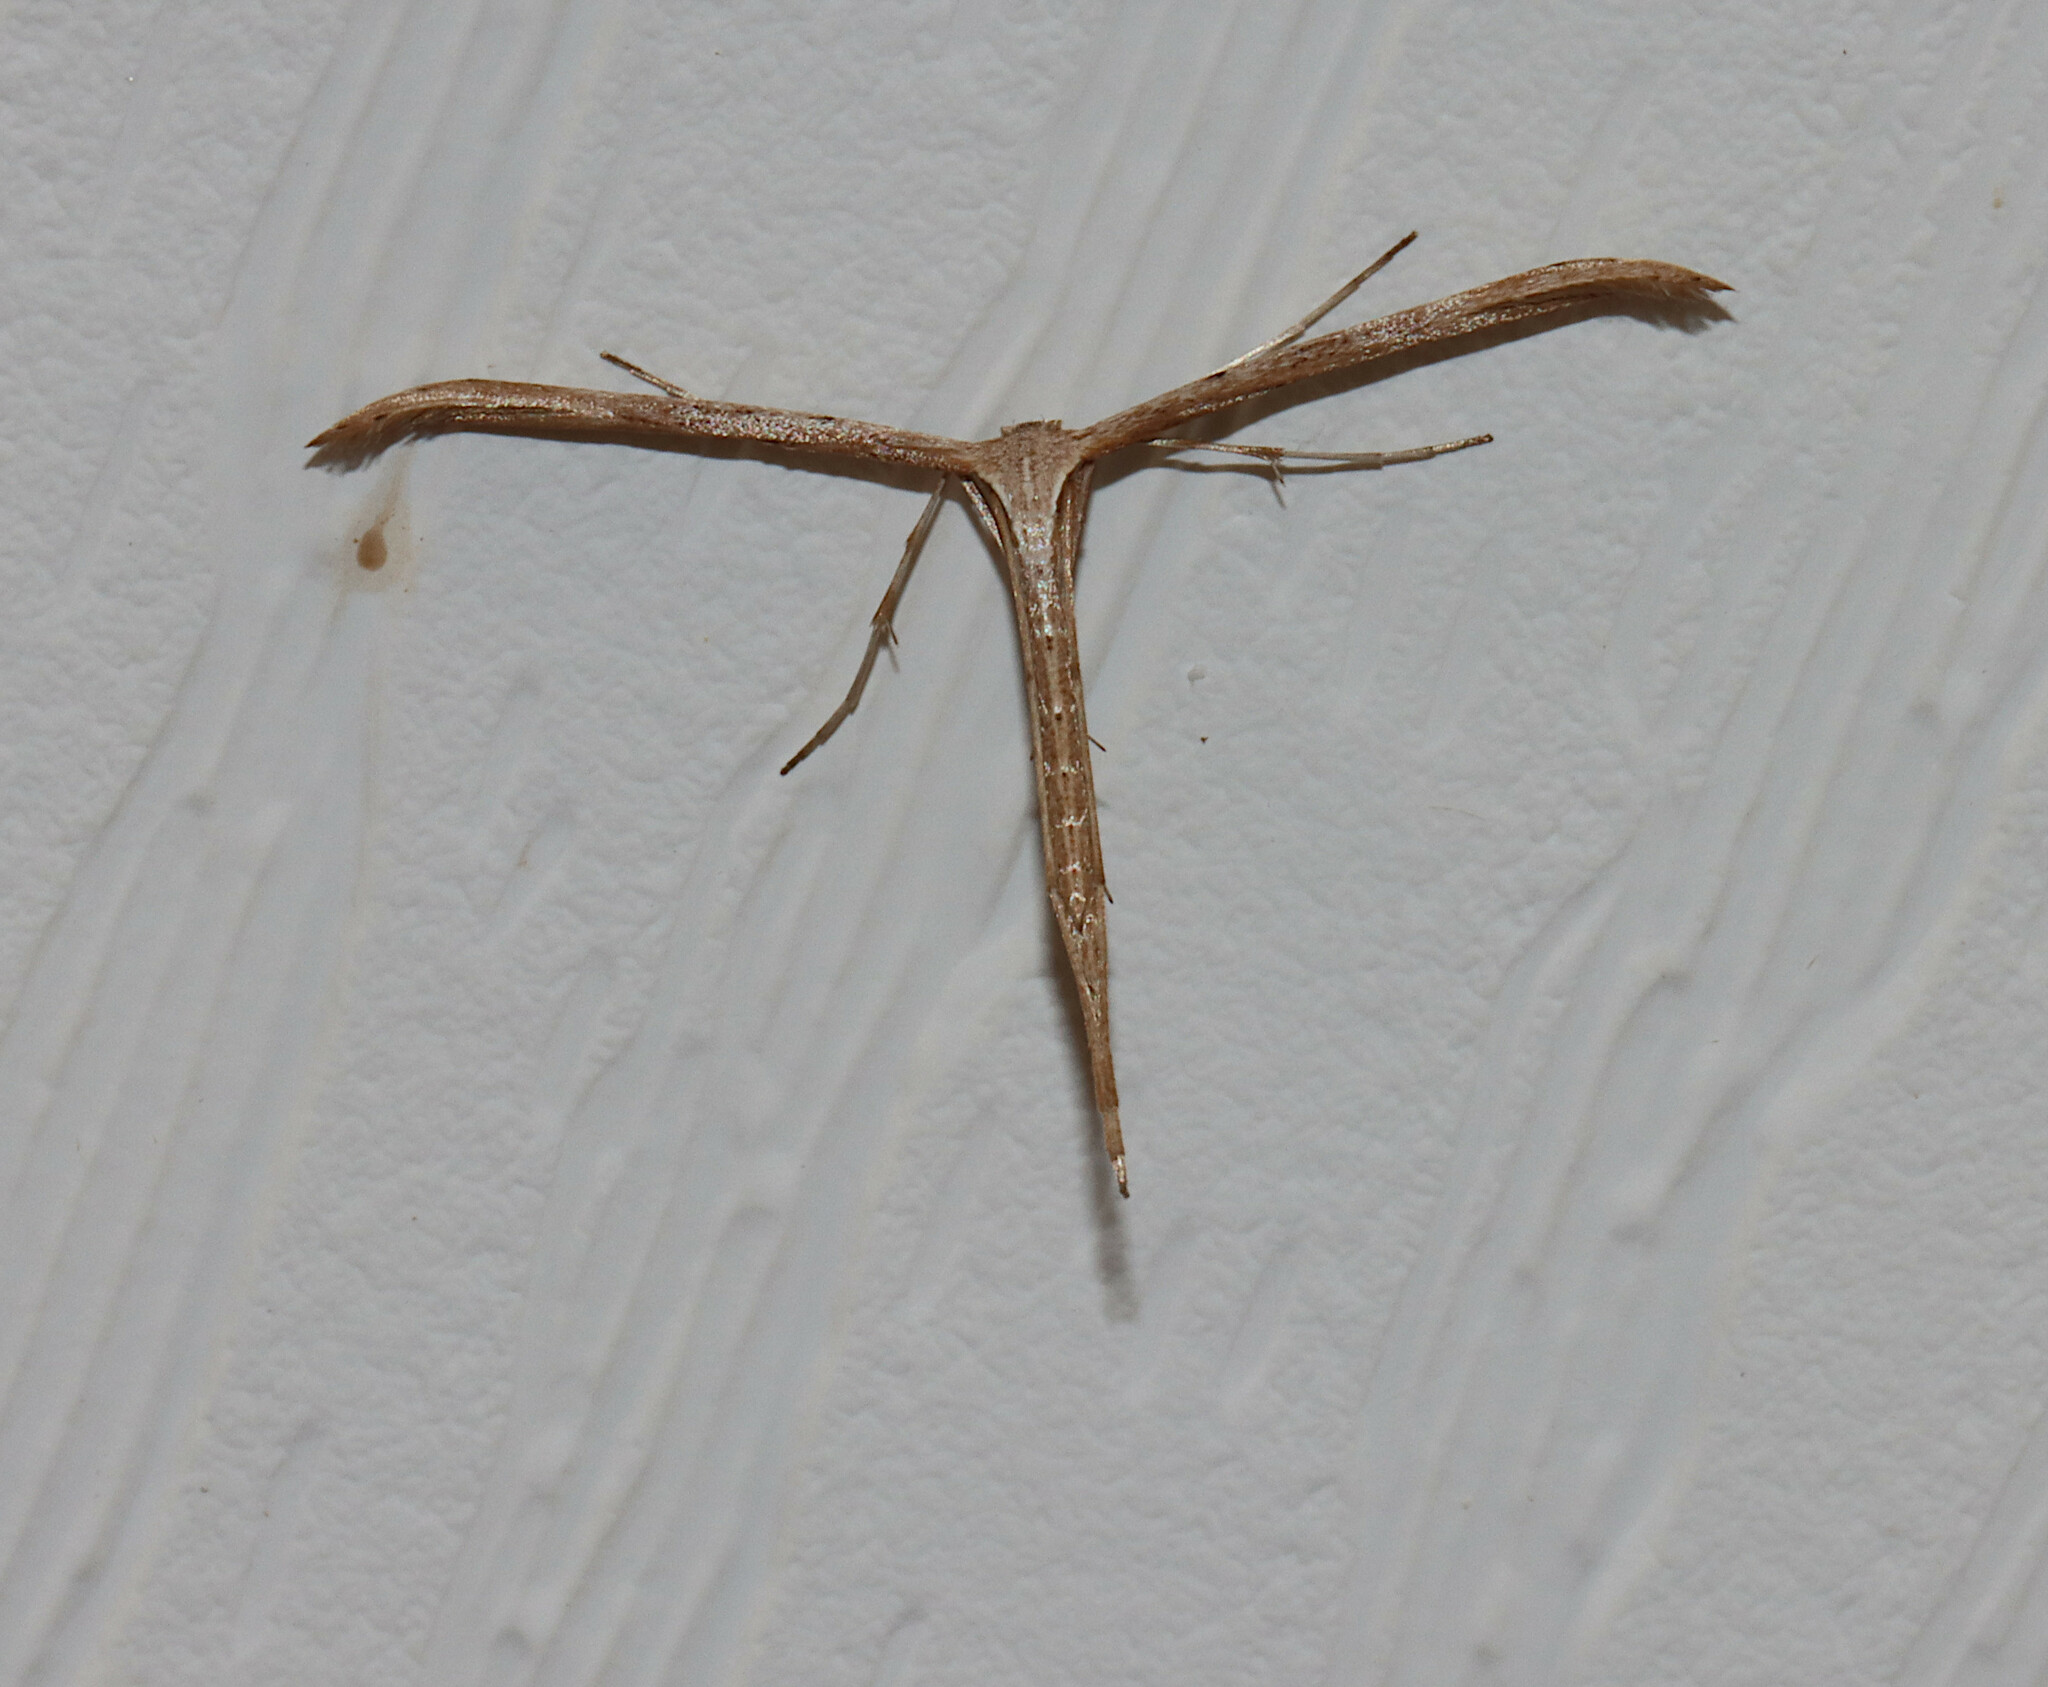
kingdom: Animalia
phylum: Arthropoda
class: Insecta
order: Lepidoptera
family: Pterophoridae
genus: Emmelina
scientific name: Emmelina monodactyla
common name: Common plume
